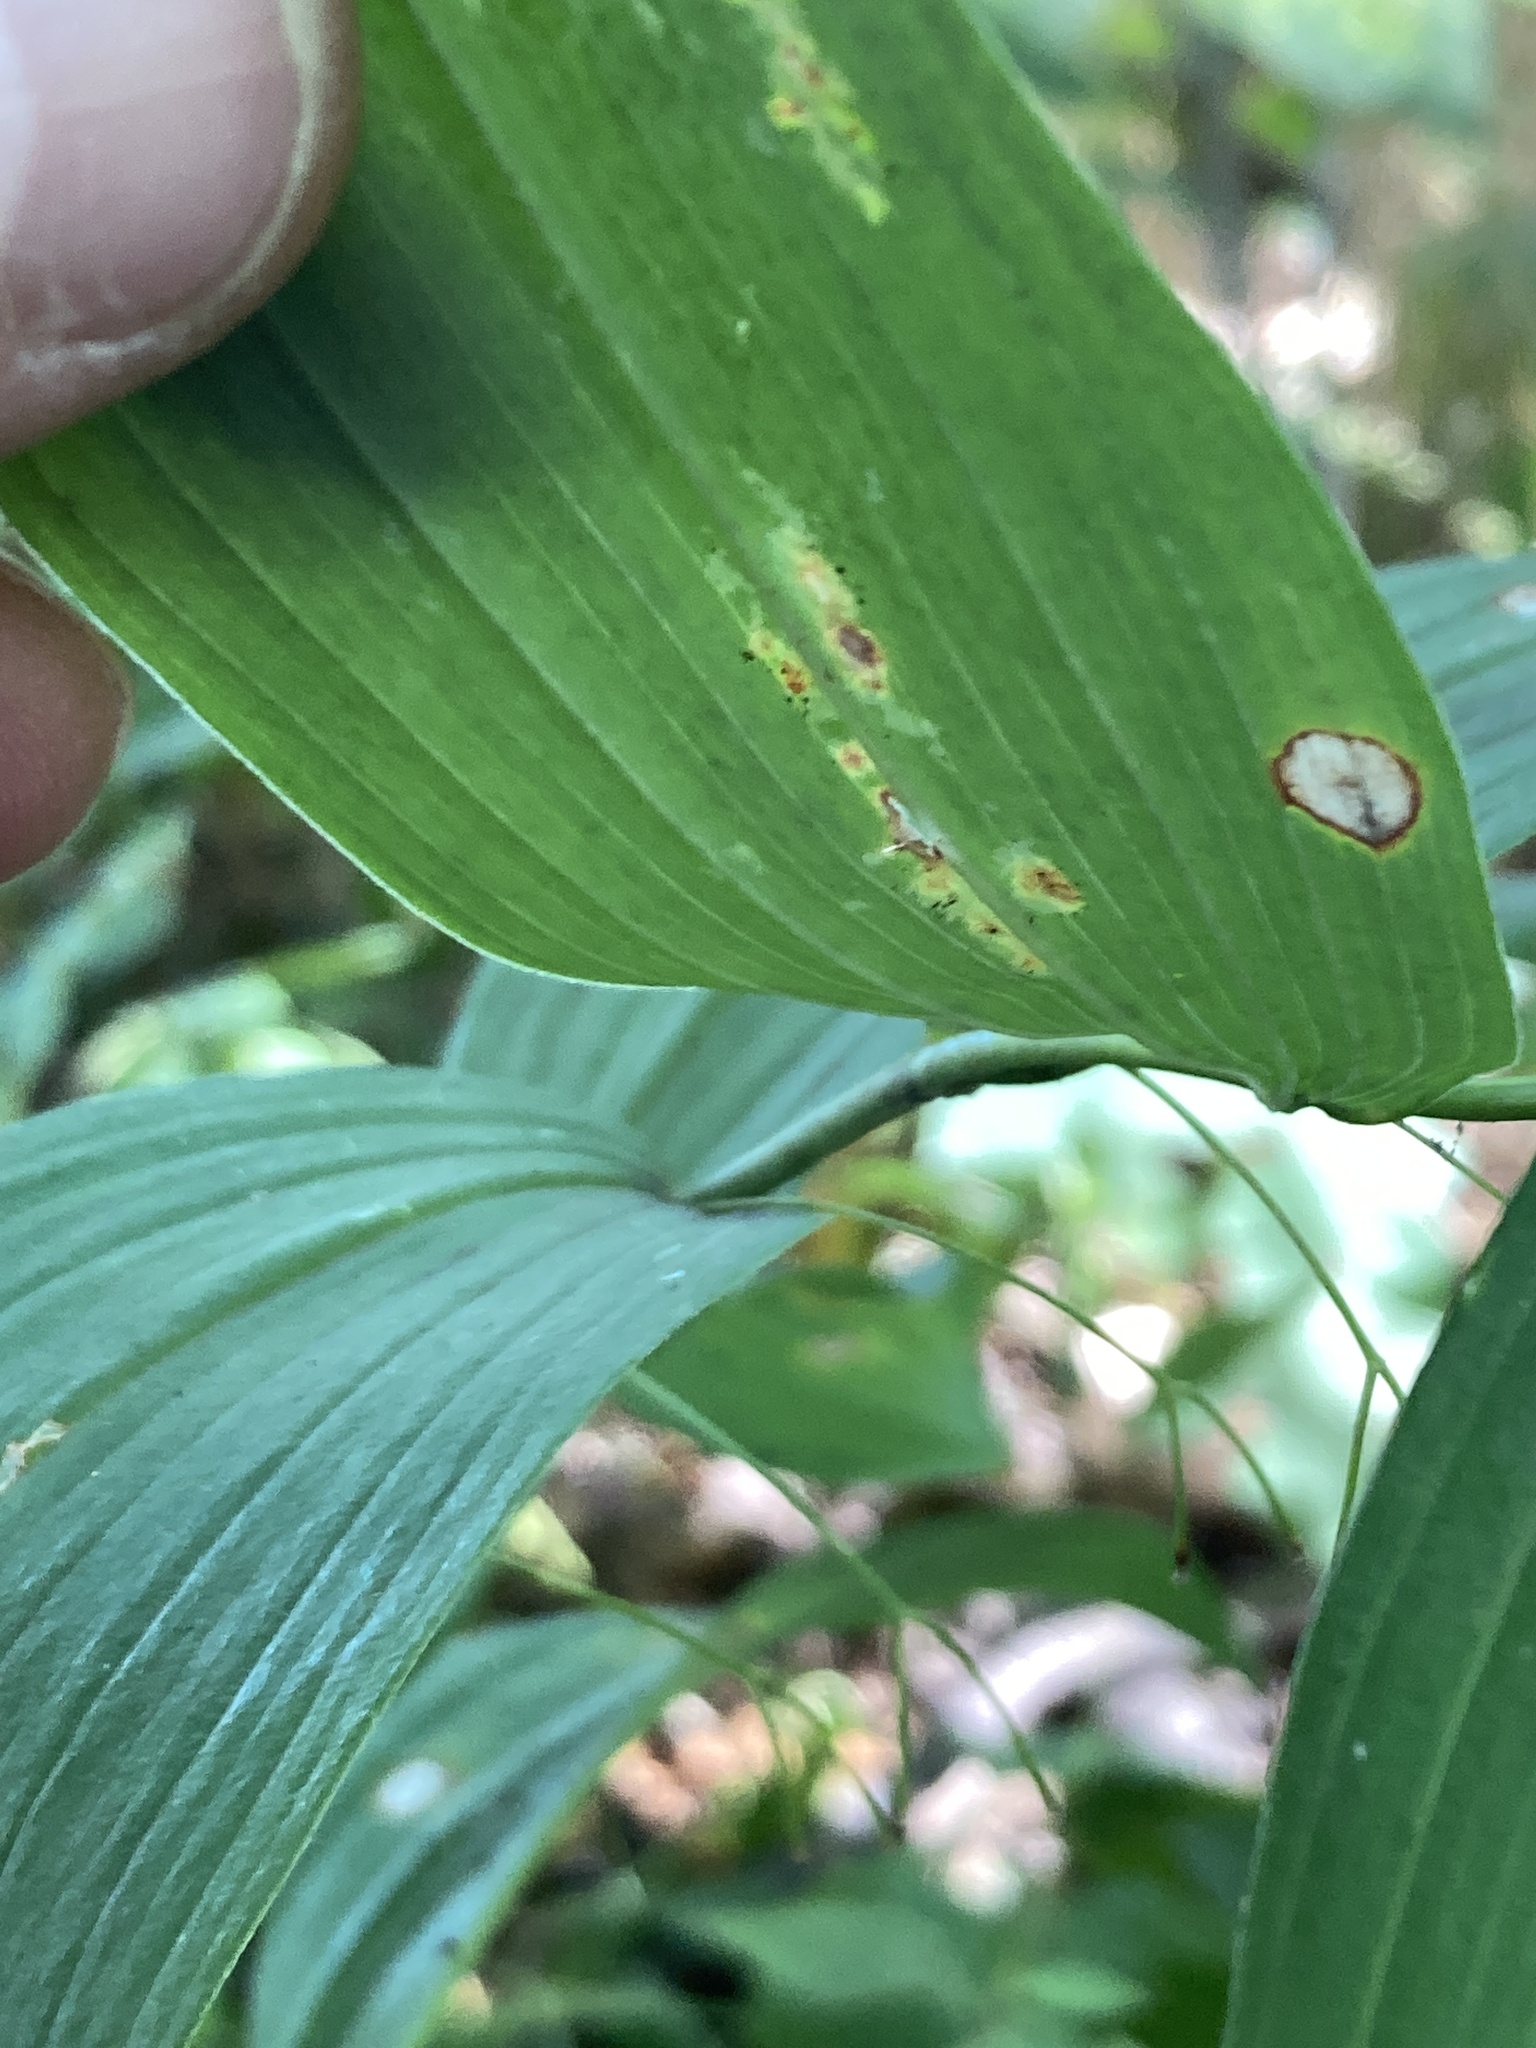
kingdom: Plantae
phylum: Tracheophyta
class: Liliopsida
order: Asparagales
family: Asparagaceae
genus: Polygonatum
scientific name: Polygonatum biflorum
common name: American solomon's-seal
